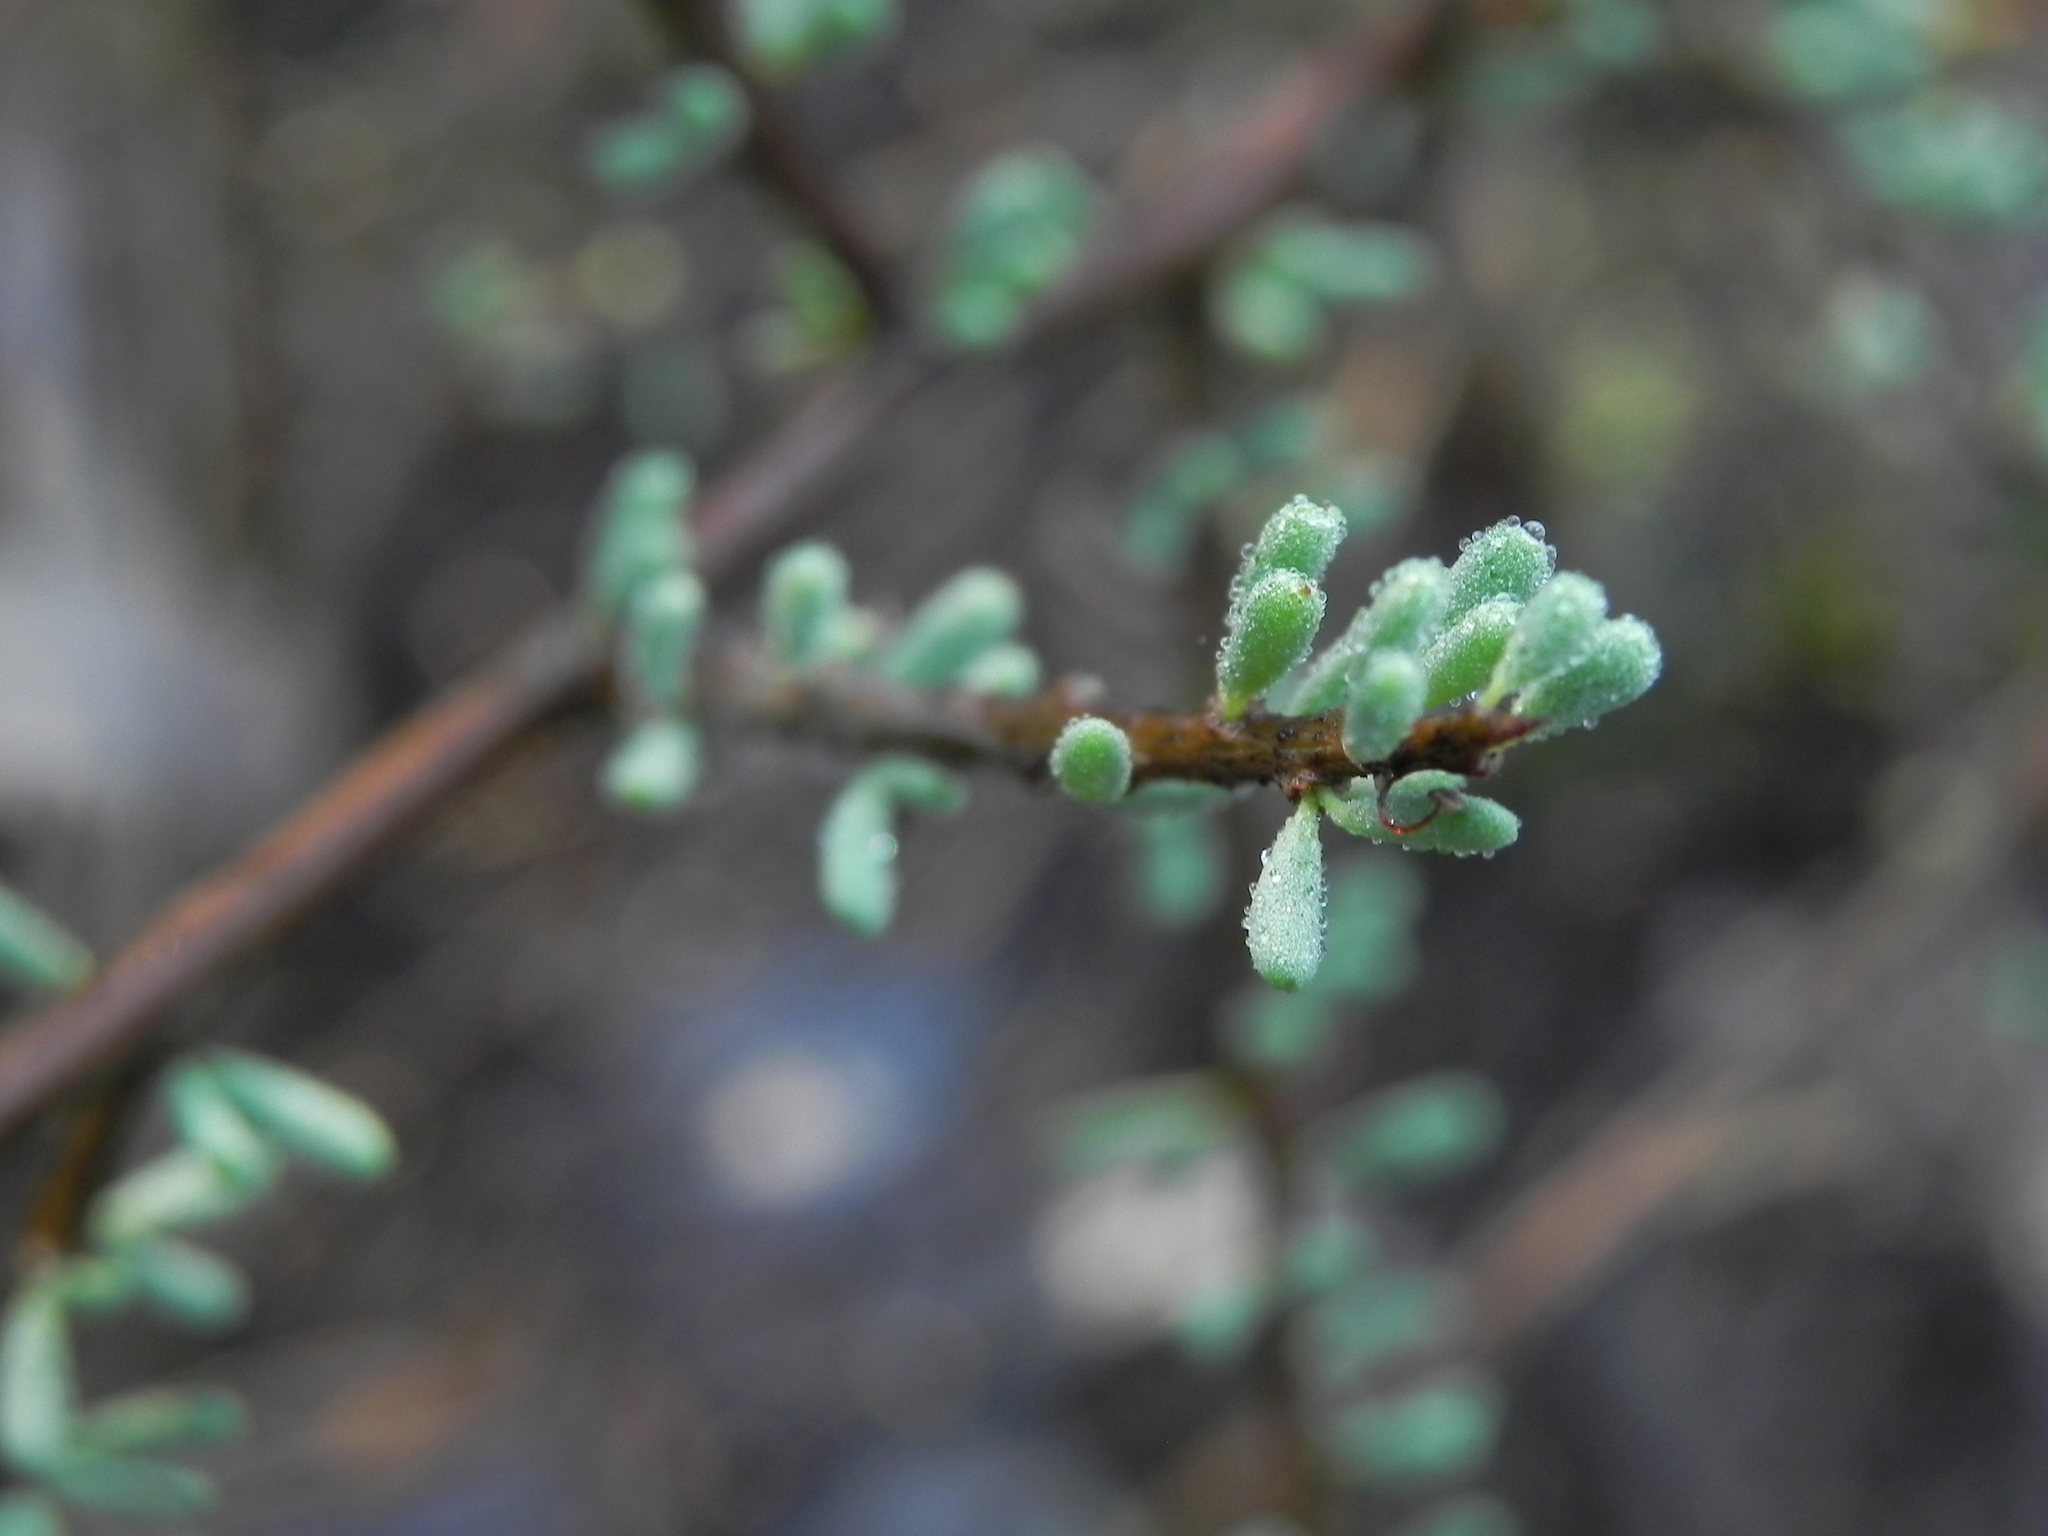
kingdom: Plantae
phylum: Tracheophyta
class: Magnoliopsida
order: Solanales
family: Solanaceae
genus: Lycium
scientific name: Lycium californicum
